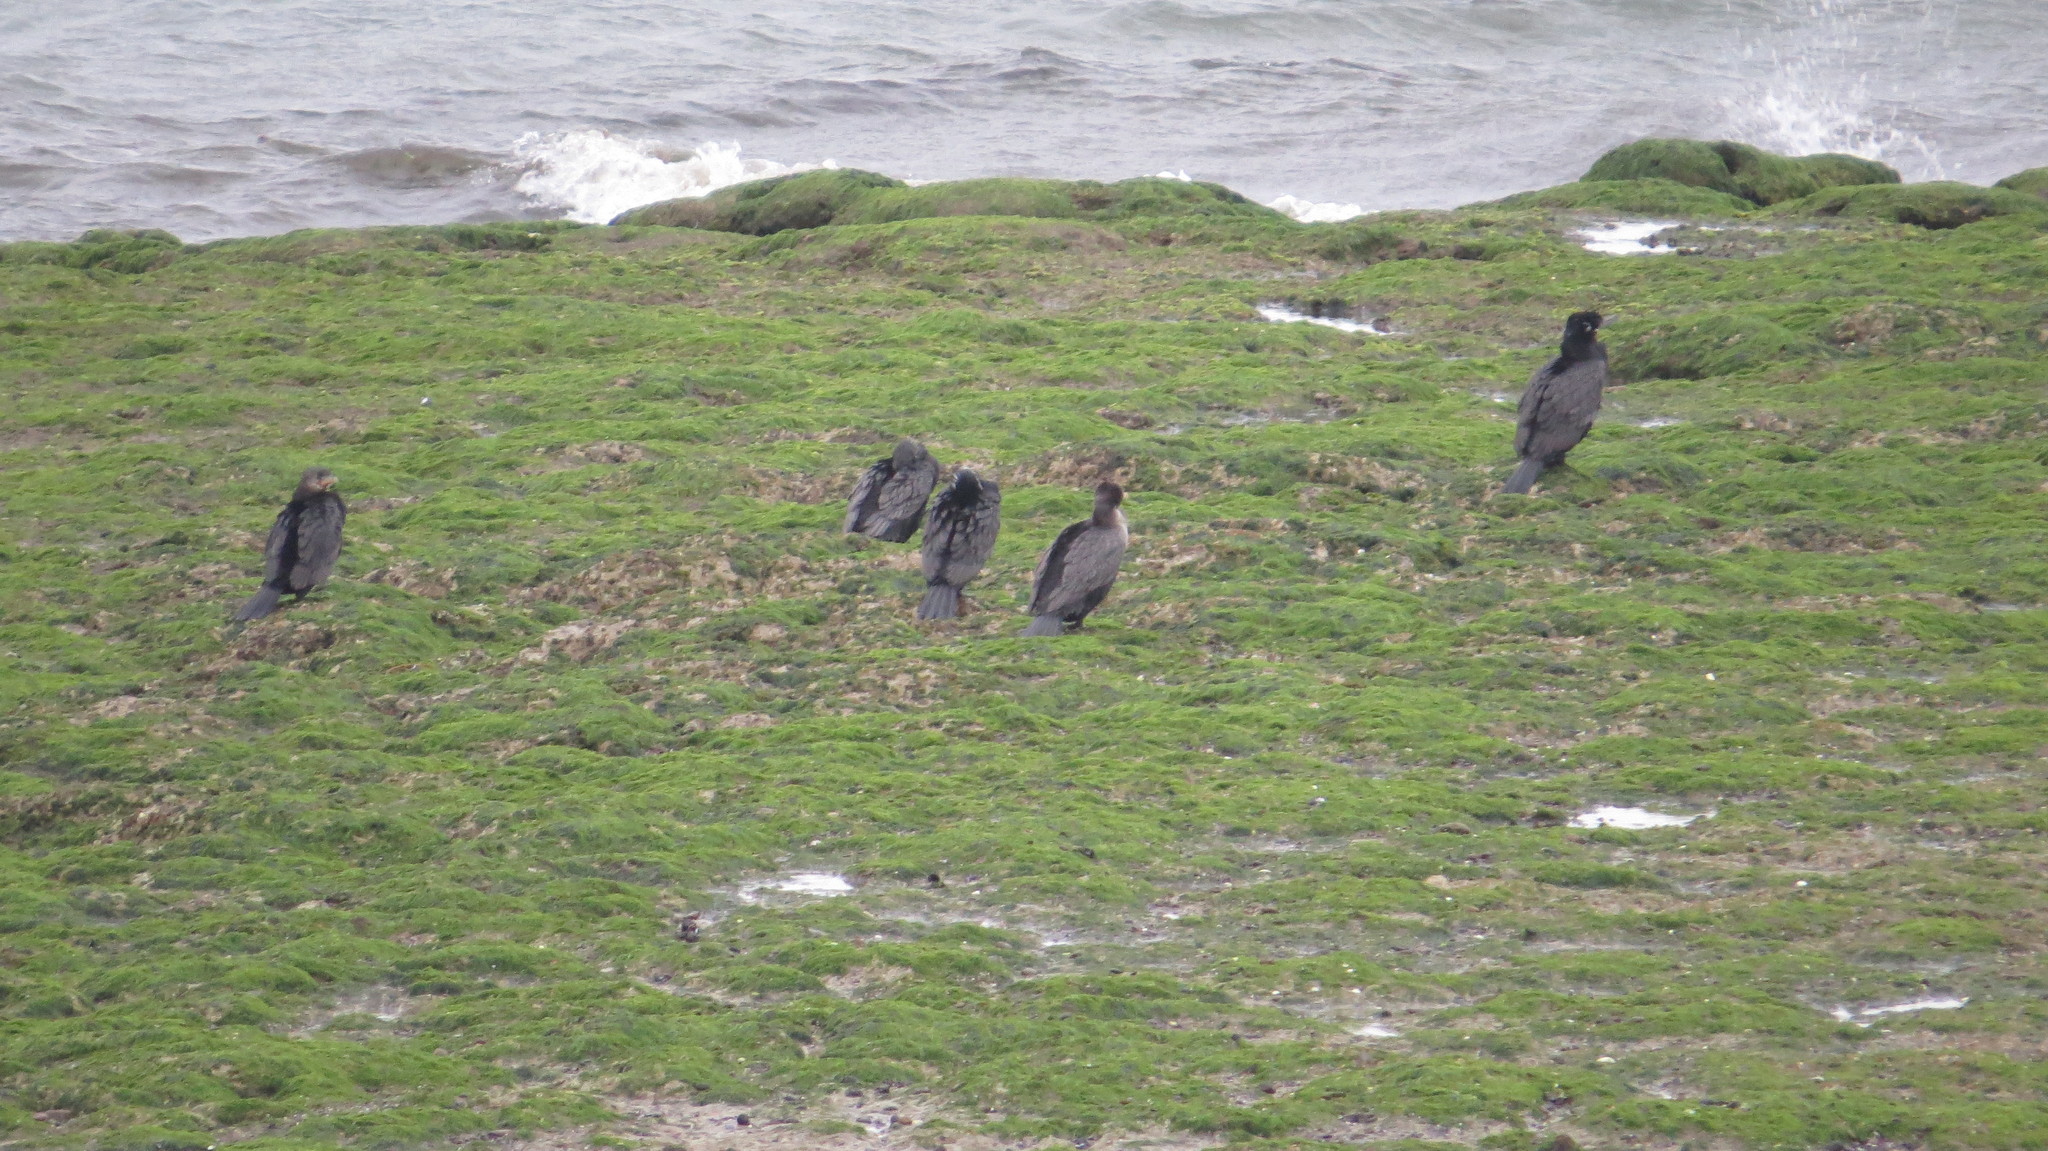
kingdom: Animalia
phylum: Chordata
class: Aves
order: Suliformes
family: Phalacrocoracidae
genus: Phalacrocorax
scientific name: Phalacrocorax brasilianus
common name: Neotropic cormorant
